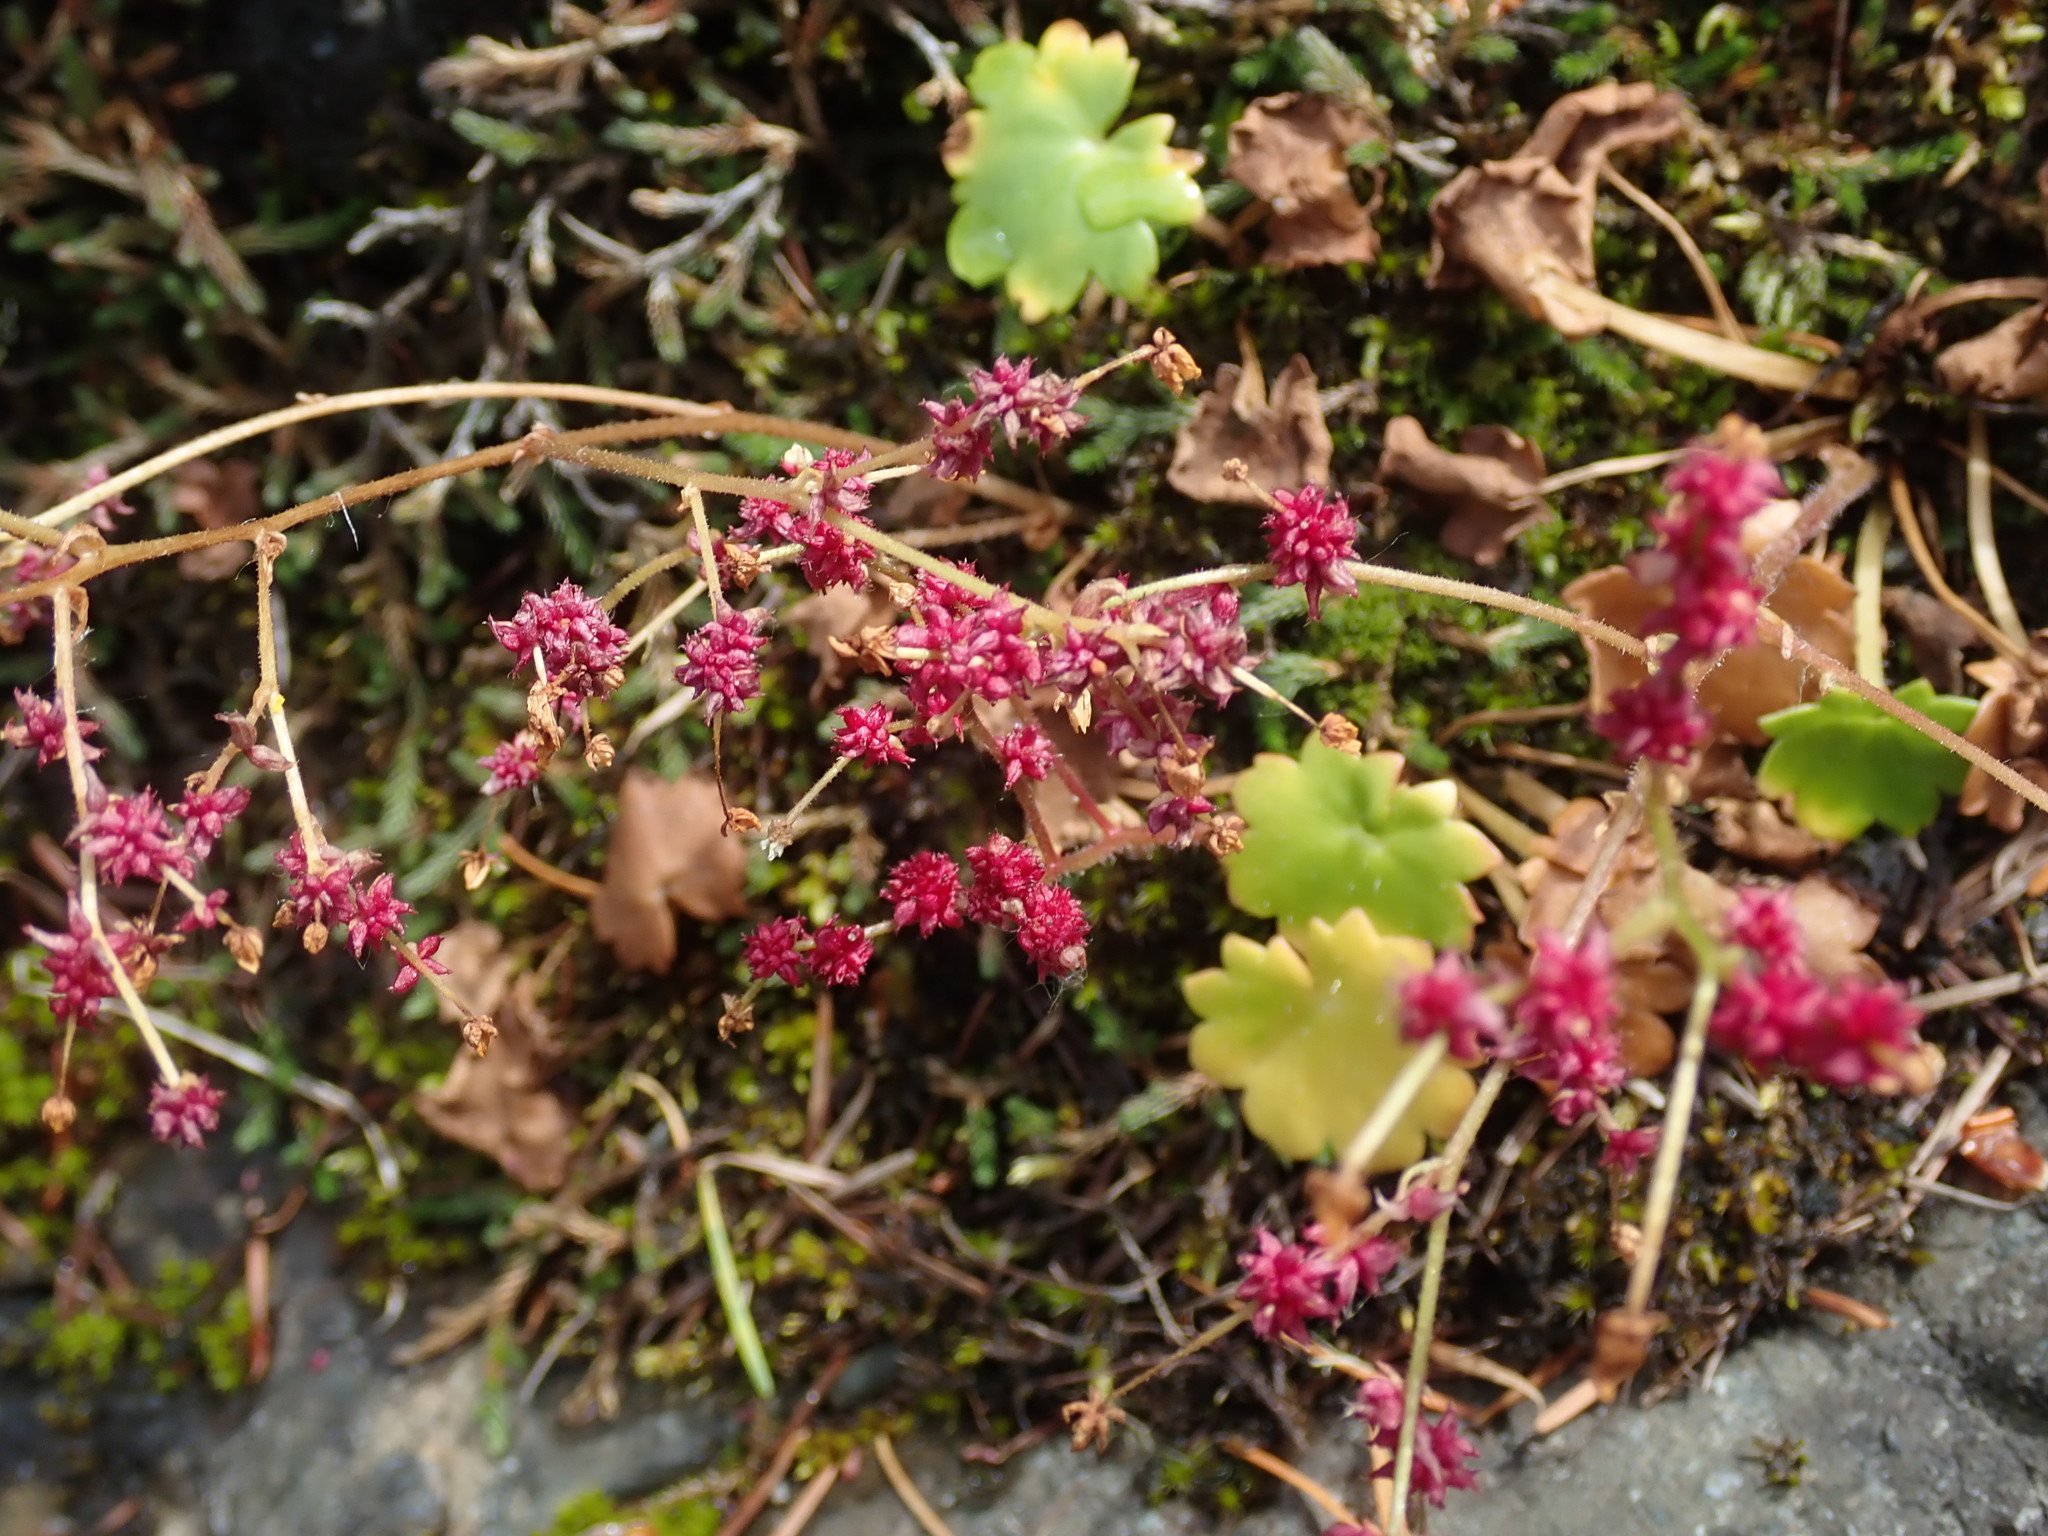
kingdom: Plantae
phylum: Tracheophyta
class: Magnoliopsida
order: Saxifragales
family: Saxifragaceae
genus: Micranthes
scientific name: Micranthes mertensiana
